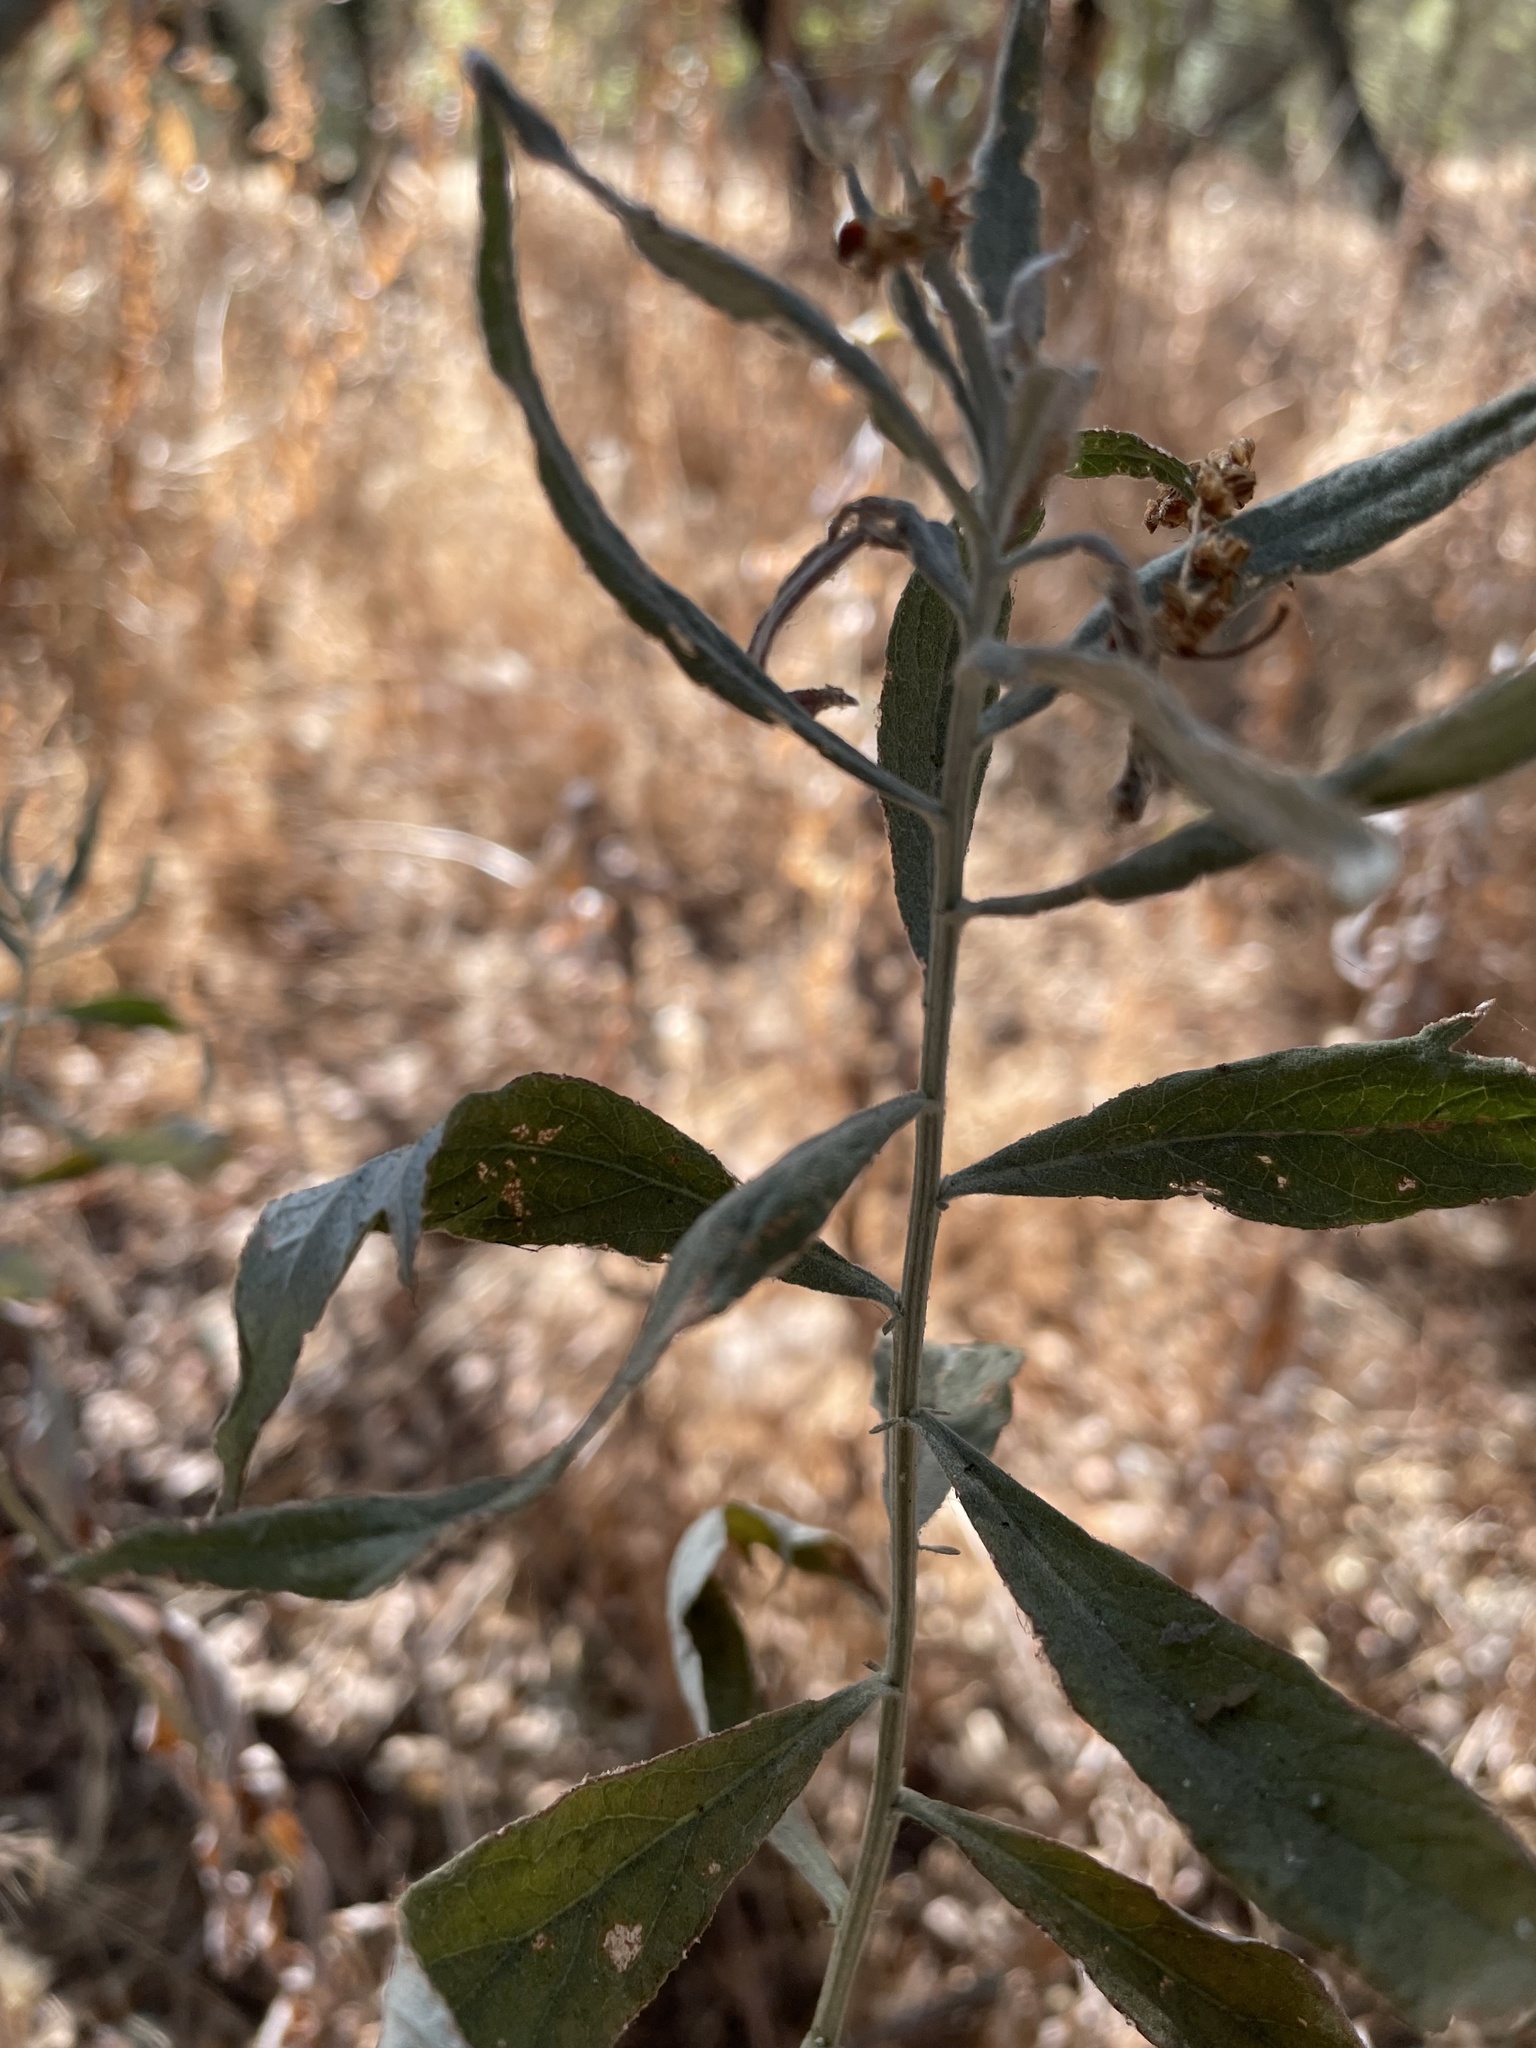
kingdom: Plantae
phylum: Tracheophyta
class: Magnoliopsida
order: Asterales
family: Asteraceae
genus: Artemisia
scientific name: Artemisia douglasiana
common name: Northwest mugwort
